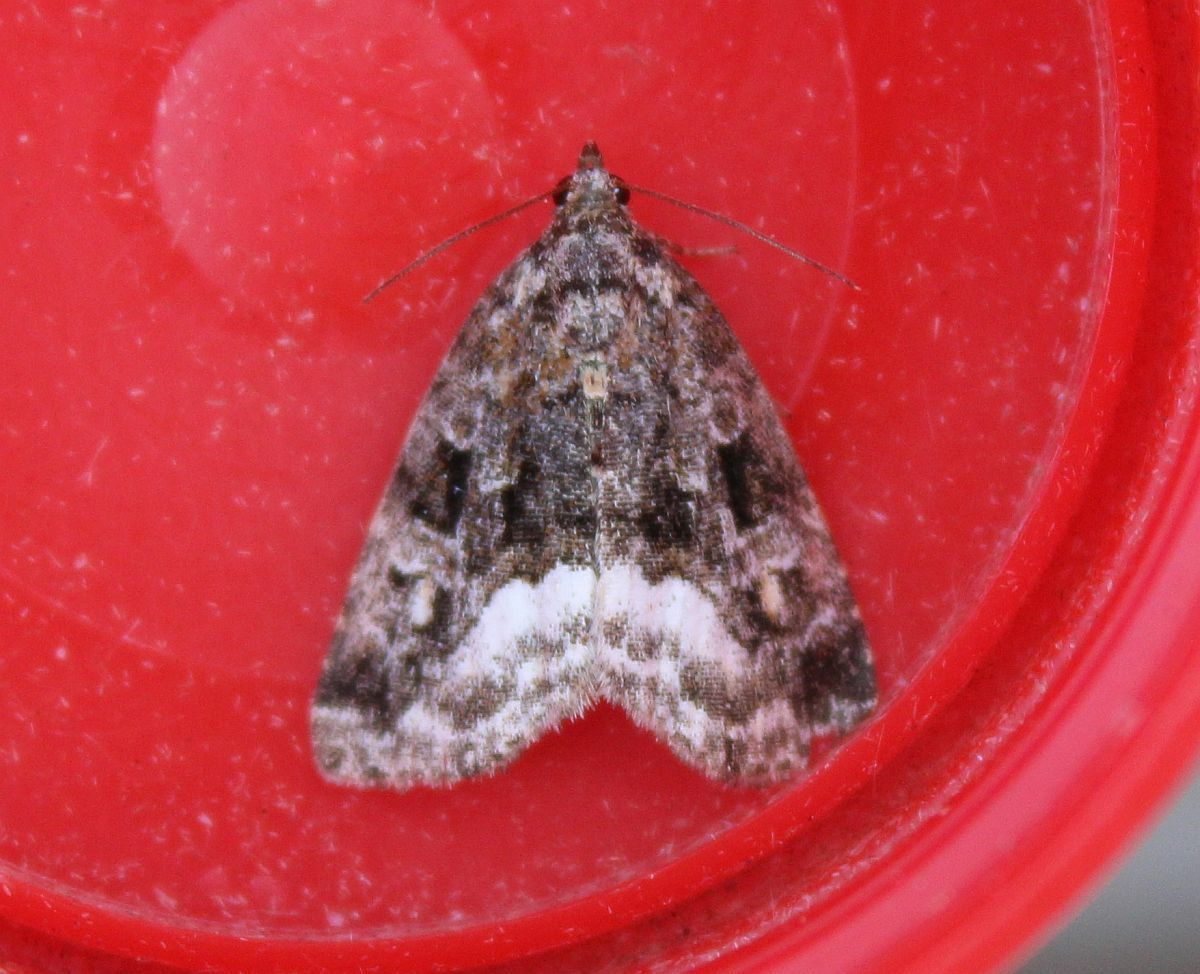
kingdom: Animalia
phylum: Arthropoda
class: Insecta
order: Lepidoptera
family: Noctuidae
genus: Deltote
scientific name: Deltote pygarga
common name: Marbled white spot
